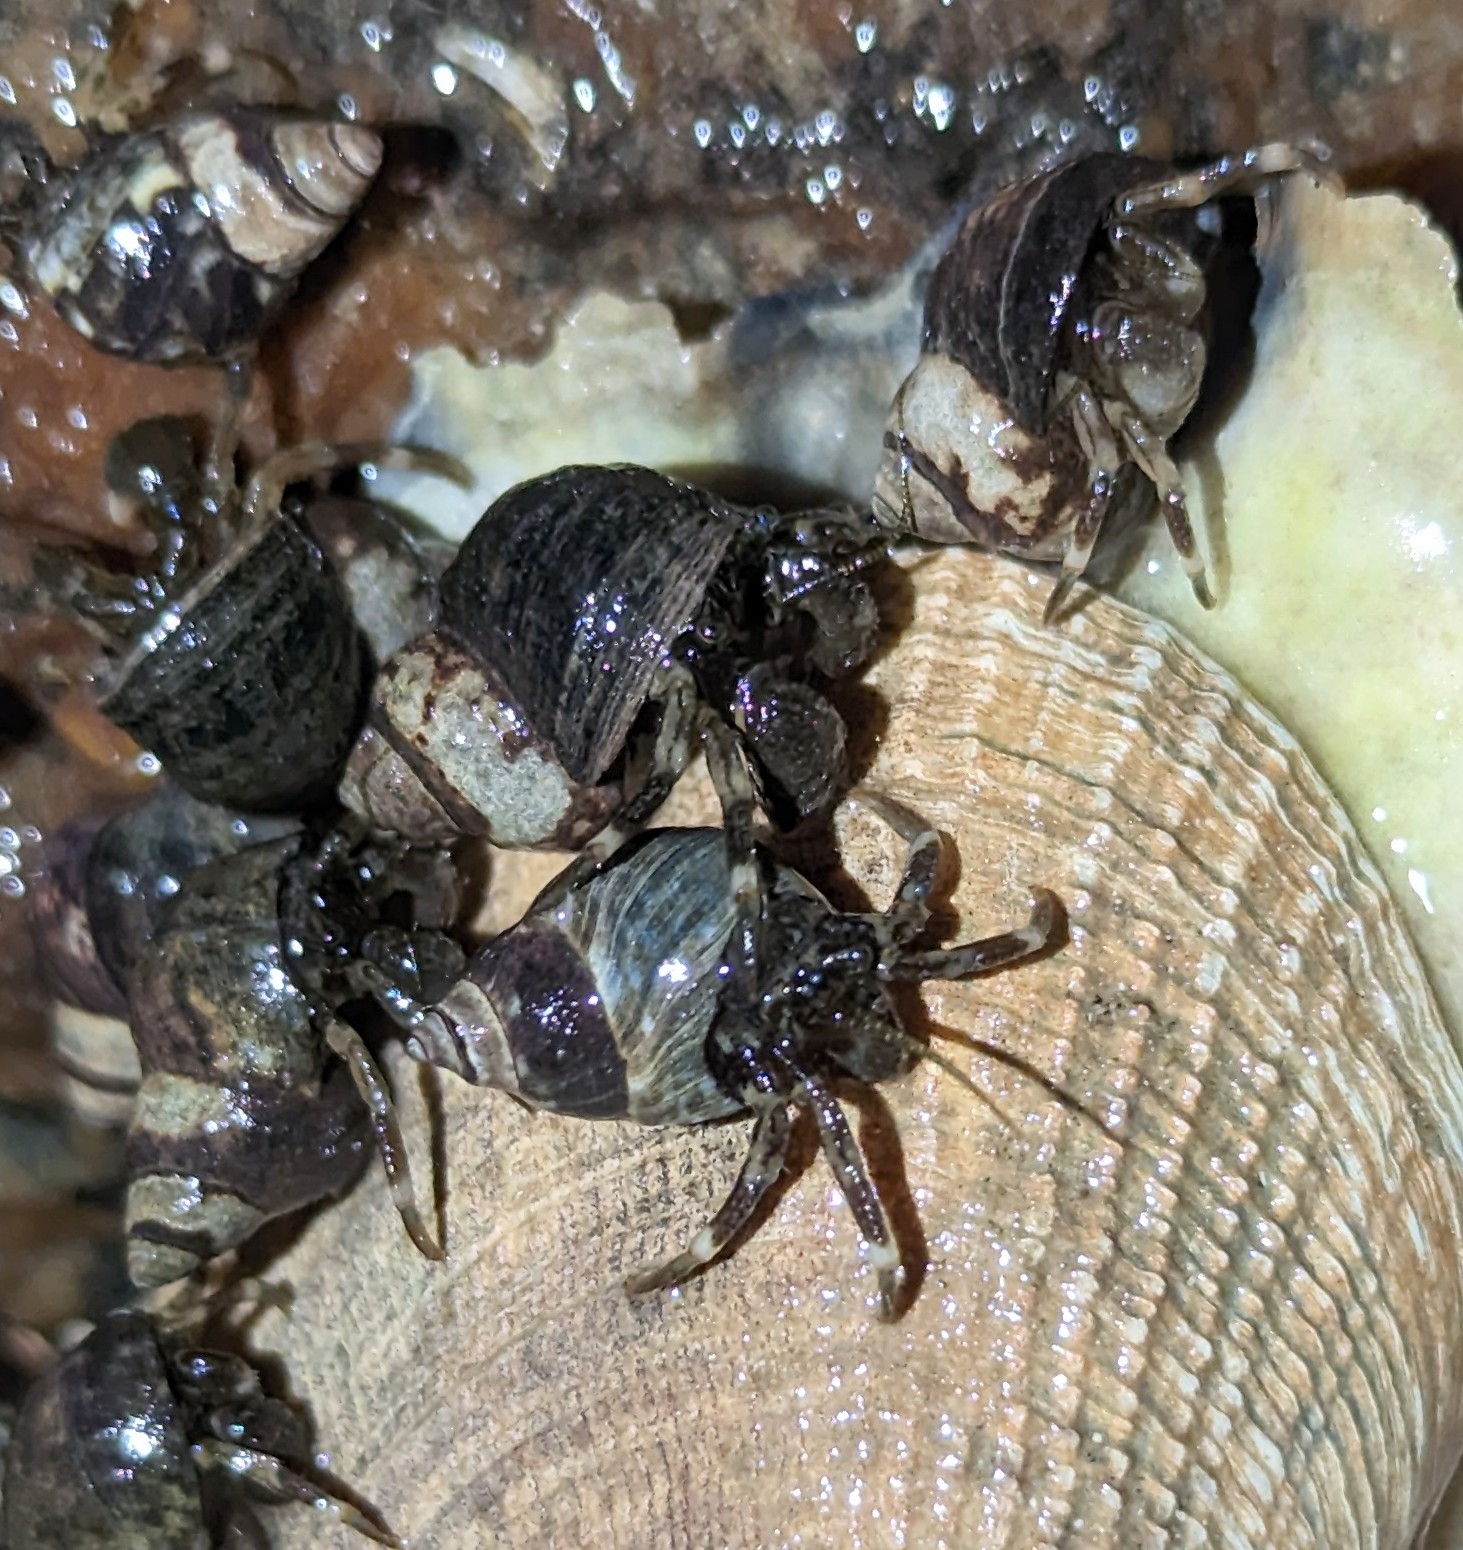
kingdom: Animalia
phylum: Arthropoda
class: Malacostraca
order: Decapoda
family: Paguridae
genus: Pagurus
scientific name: Pagurus hirsutiusculus
